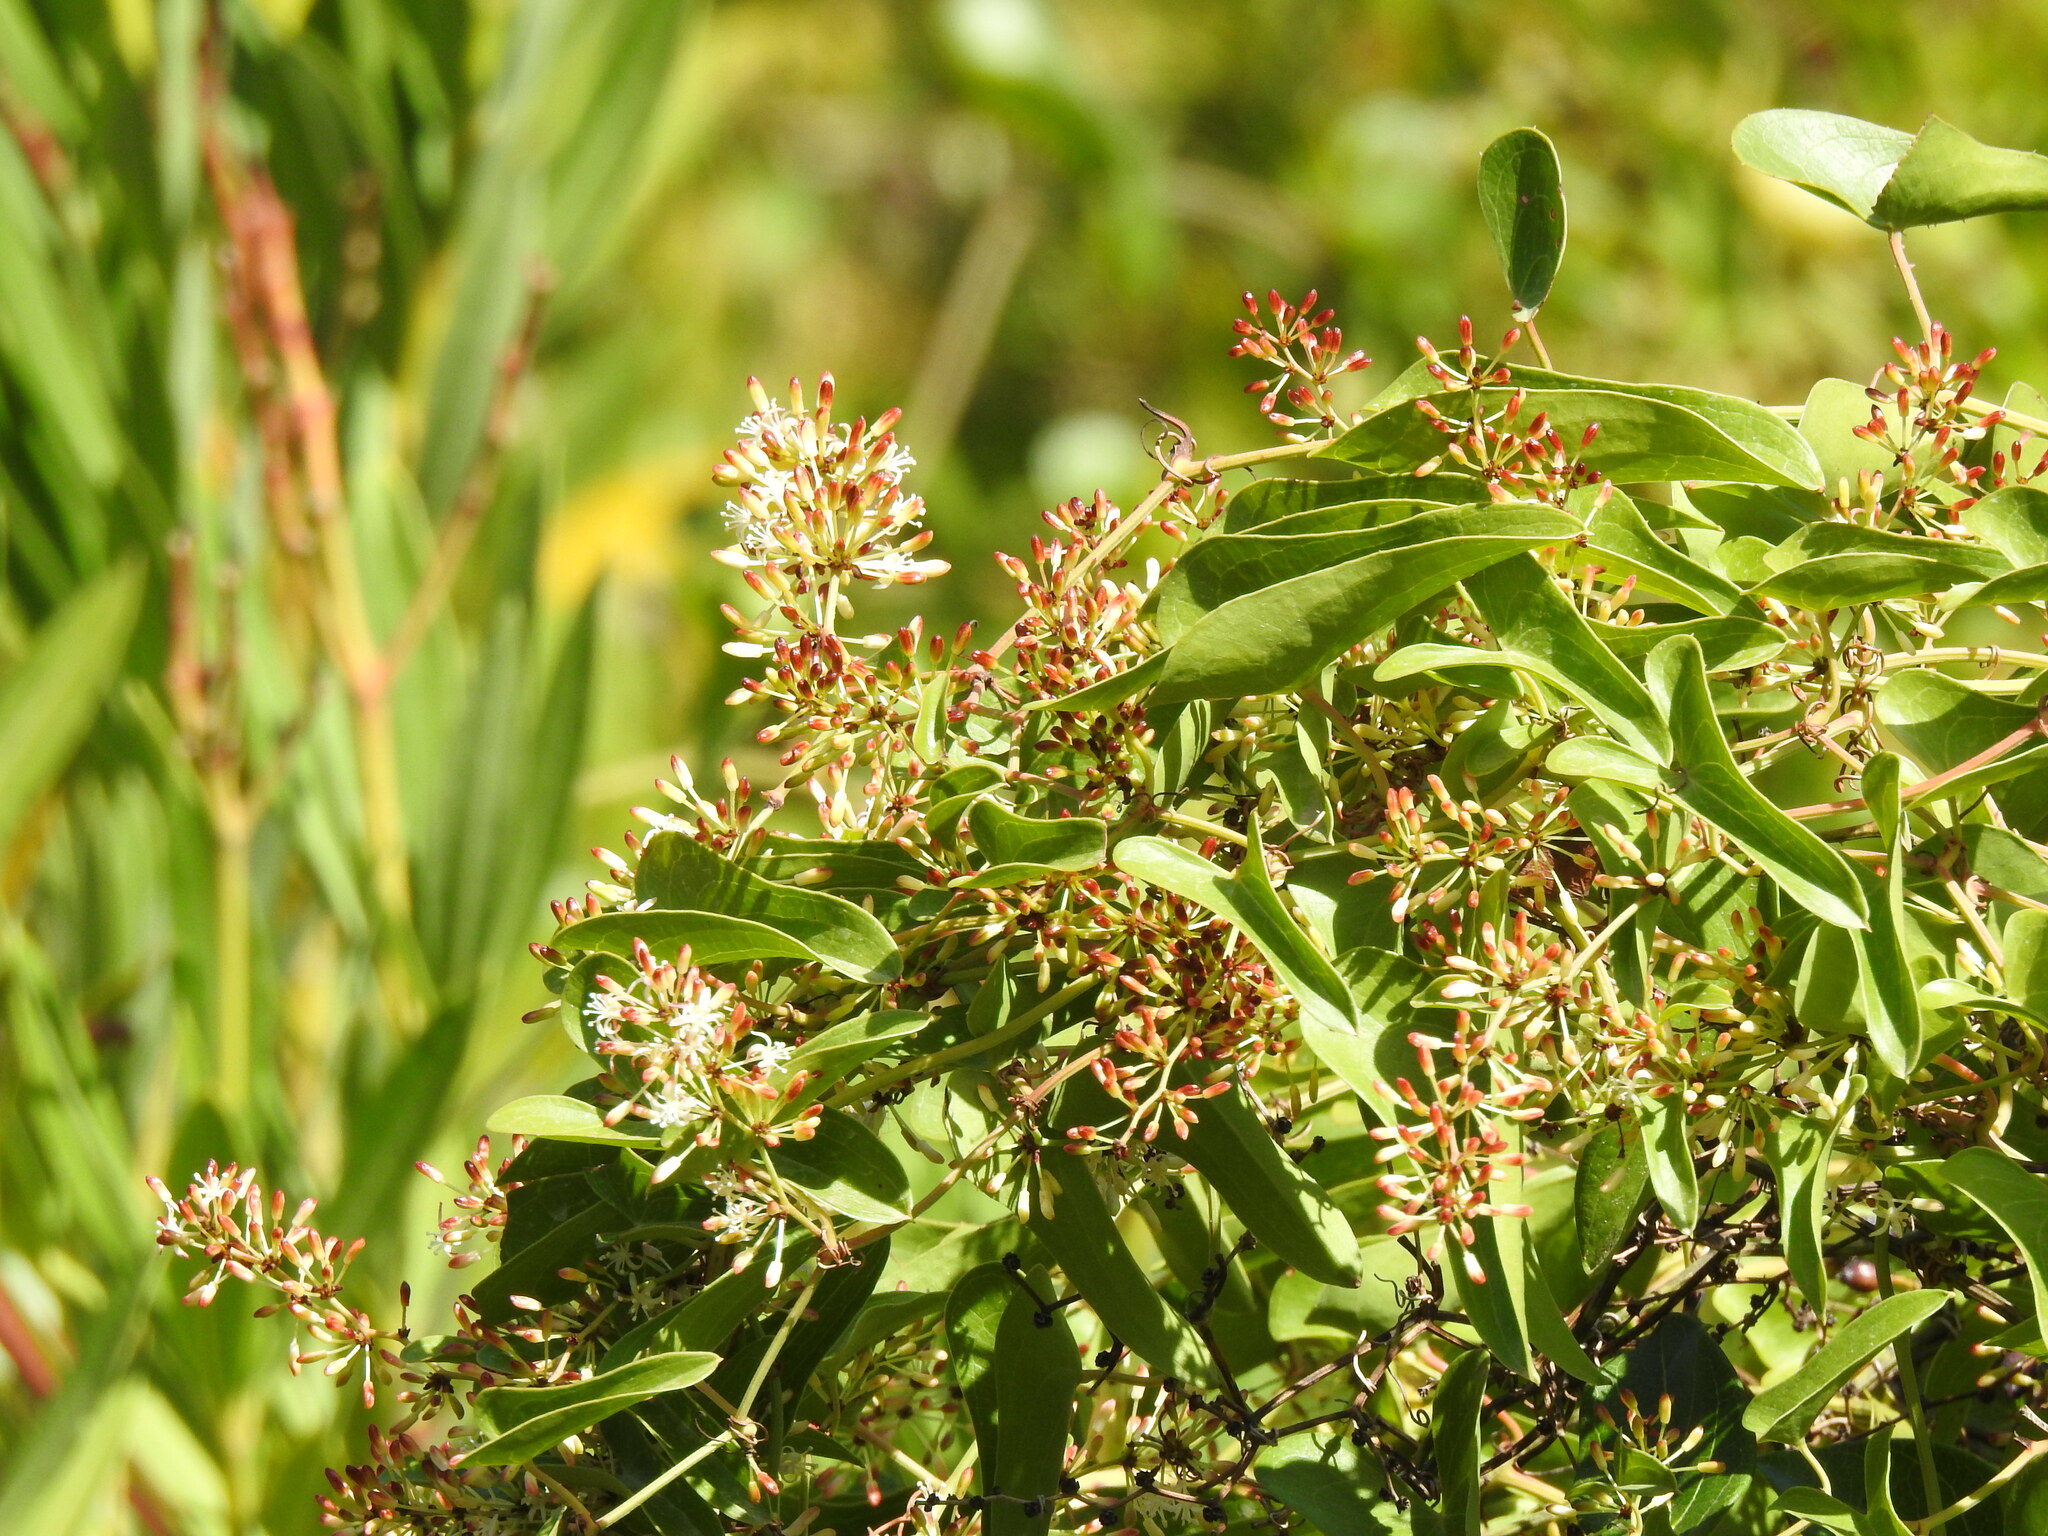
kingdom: Plantae
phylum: Tracheophyta
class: Liliopsida
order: Liliales
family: Smilacaceae
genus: Smilax
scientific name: Smilax aspera
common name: Common smilax
